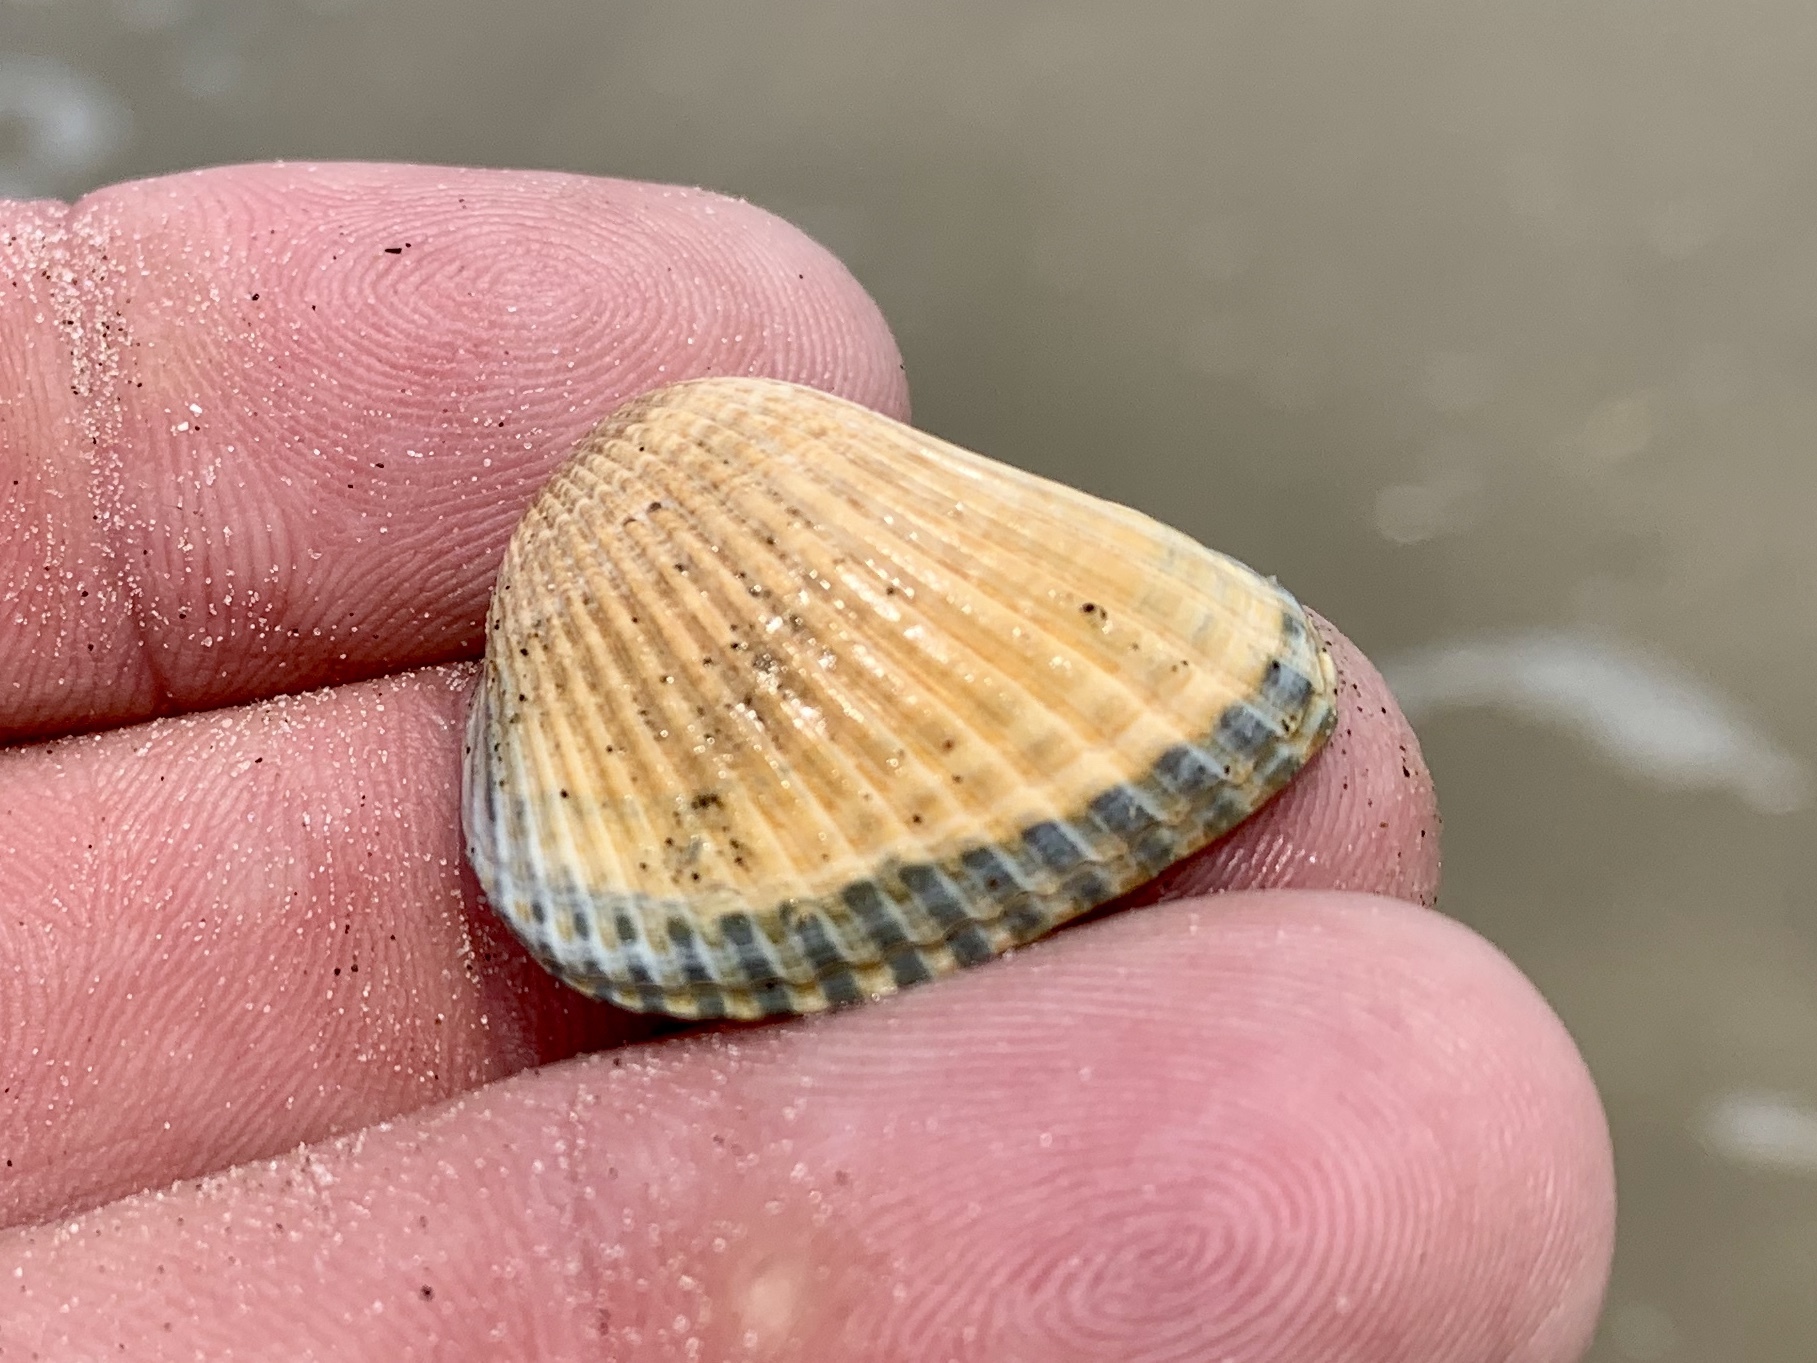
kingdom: Animalia
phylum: Mollusca
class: Bivalvia
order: Arcida
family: Noetiidae
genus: Noetia
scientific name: Noetia ponderosa
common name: Ponderous ark
